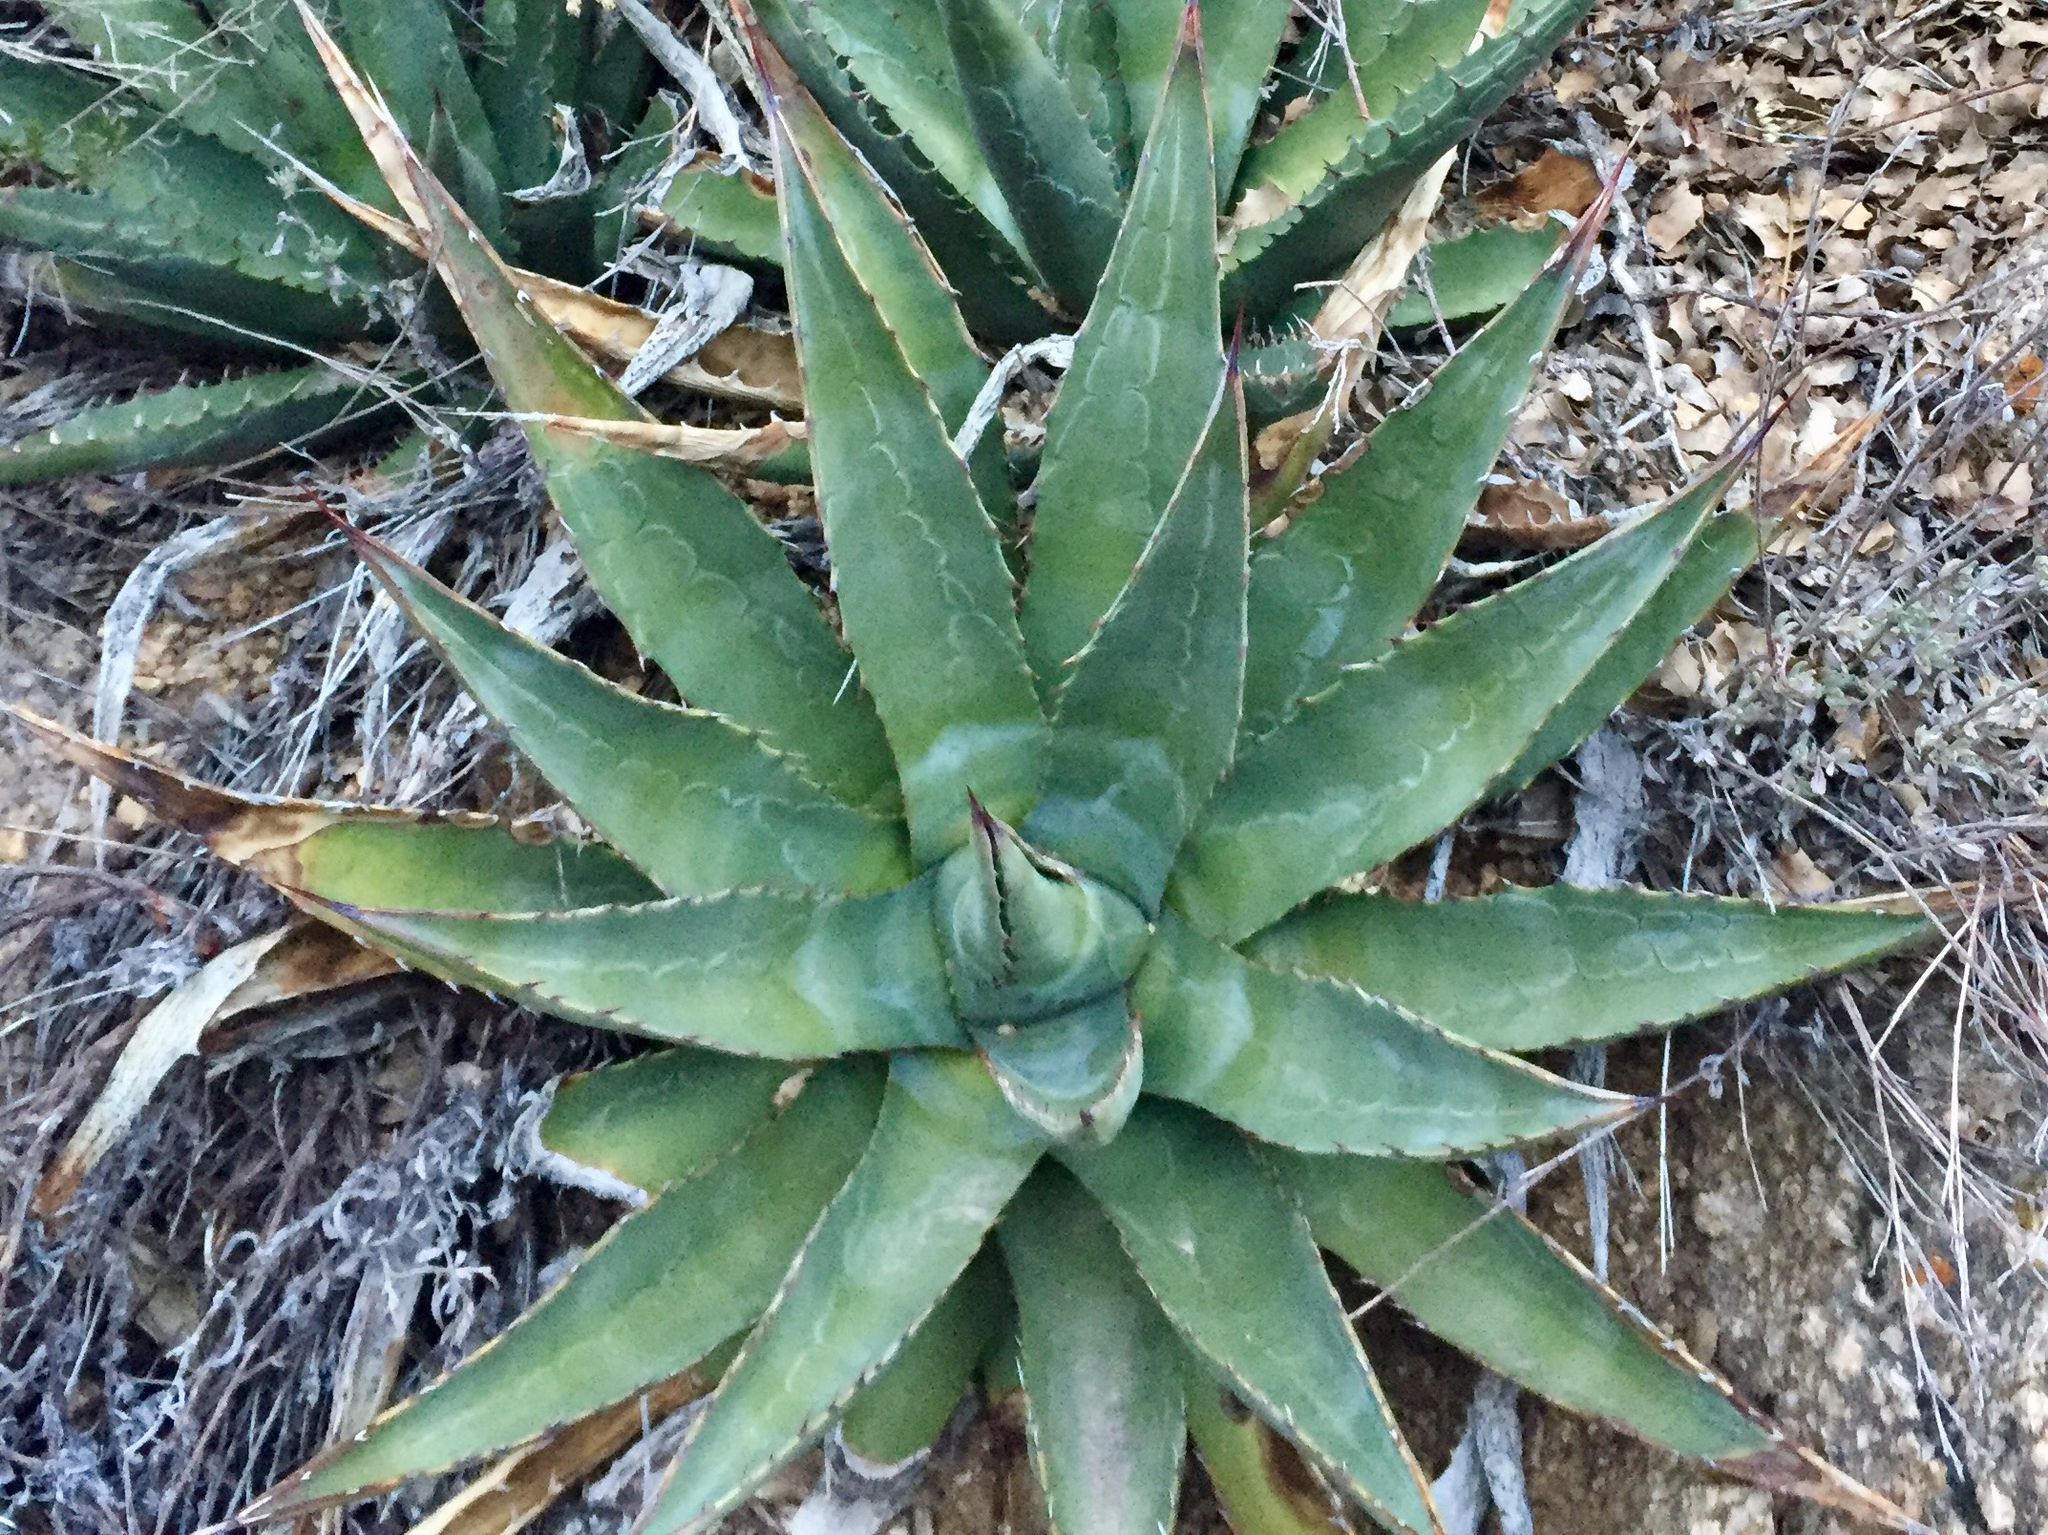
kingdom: Plantae
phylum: Tracheophyta
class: Liliopsida
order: Asparagales
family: Asparagaceae
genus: Agave
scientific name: Agave mckelveyana
